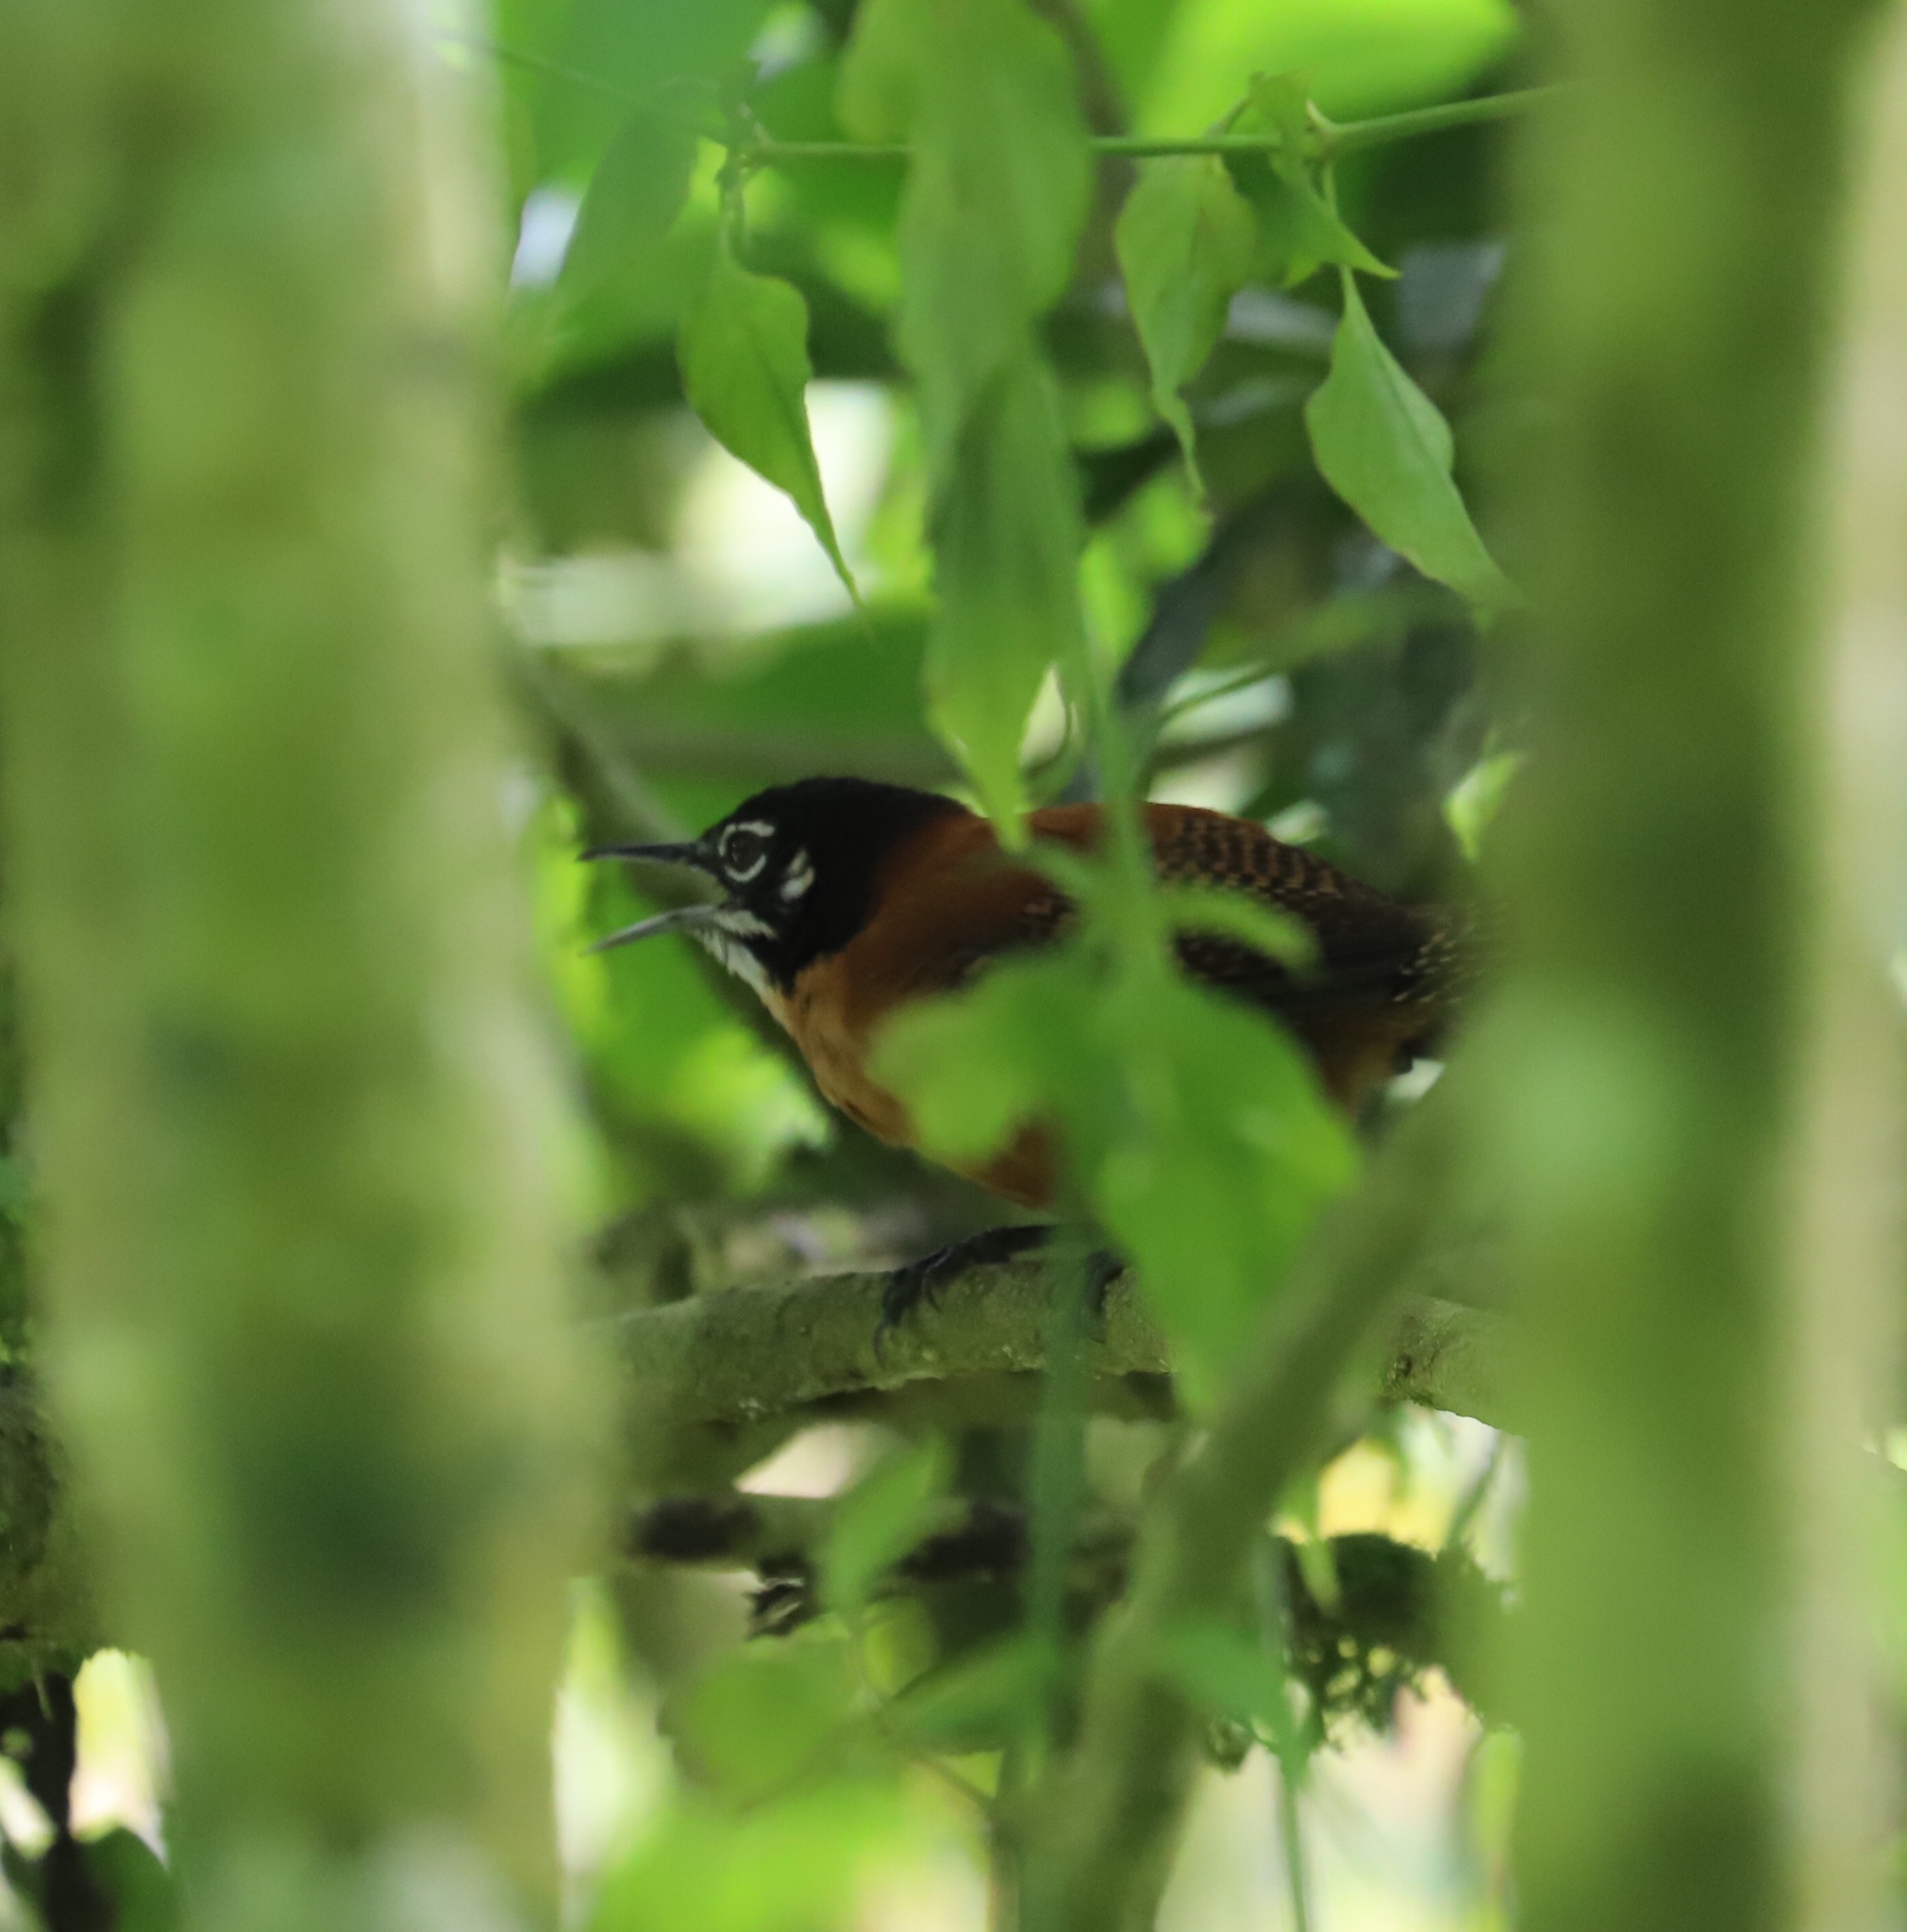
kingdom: Animalia
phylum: Chordata
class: Aves
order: Passeriformes
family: Troglodytidae
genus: Cantorchilus
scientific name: Cantorchilus nigricapillus
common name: Bay wren
